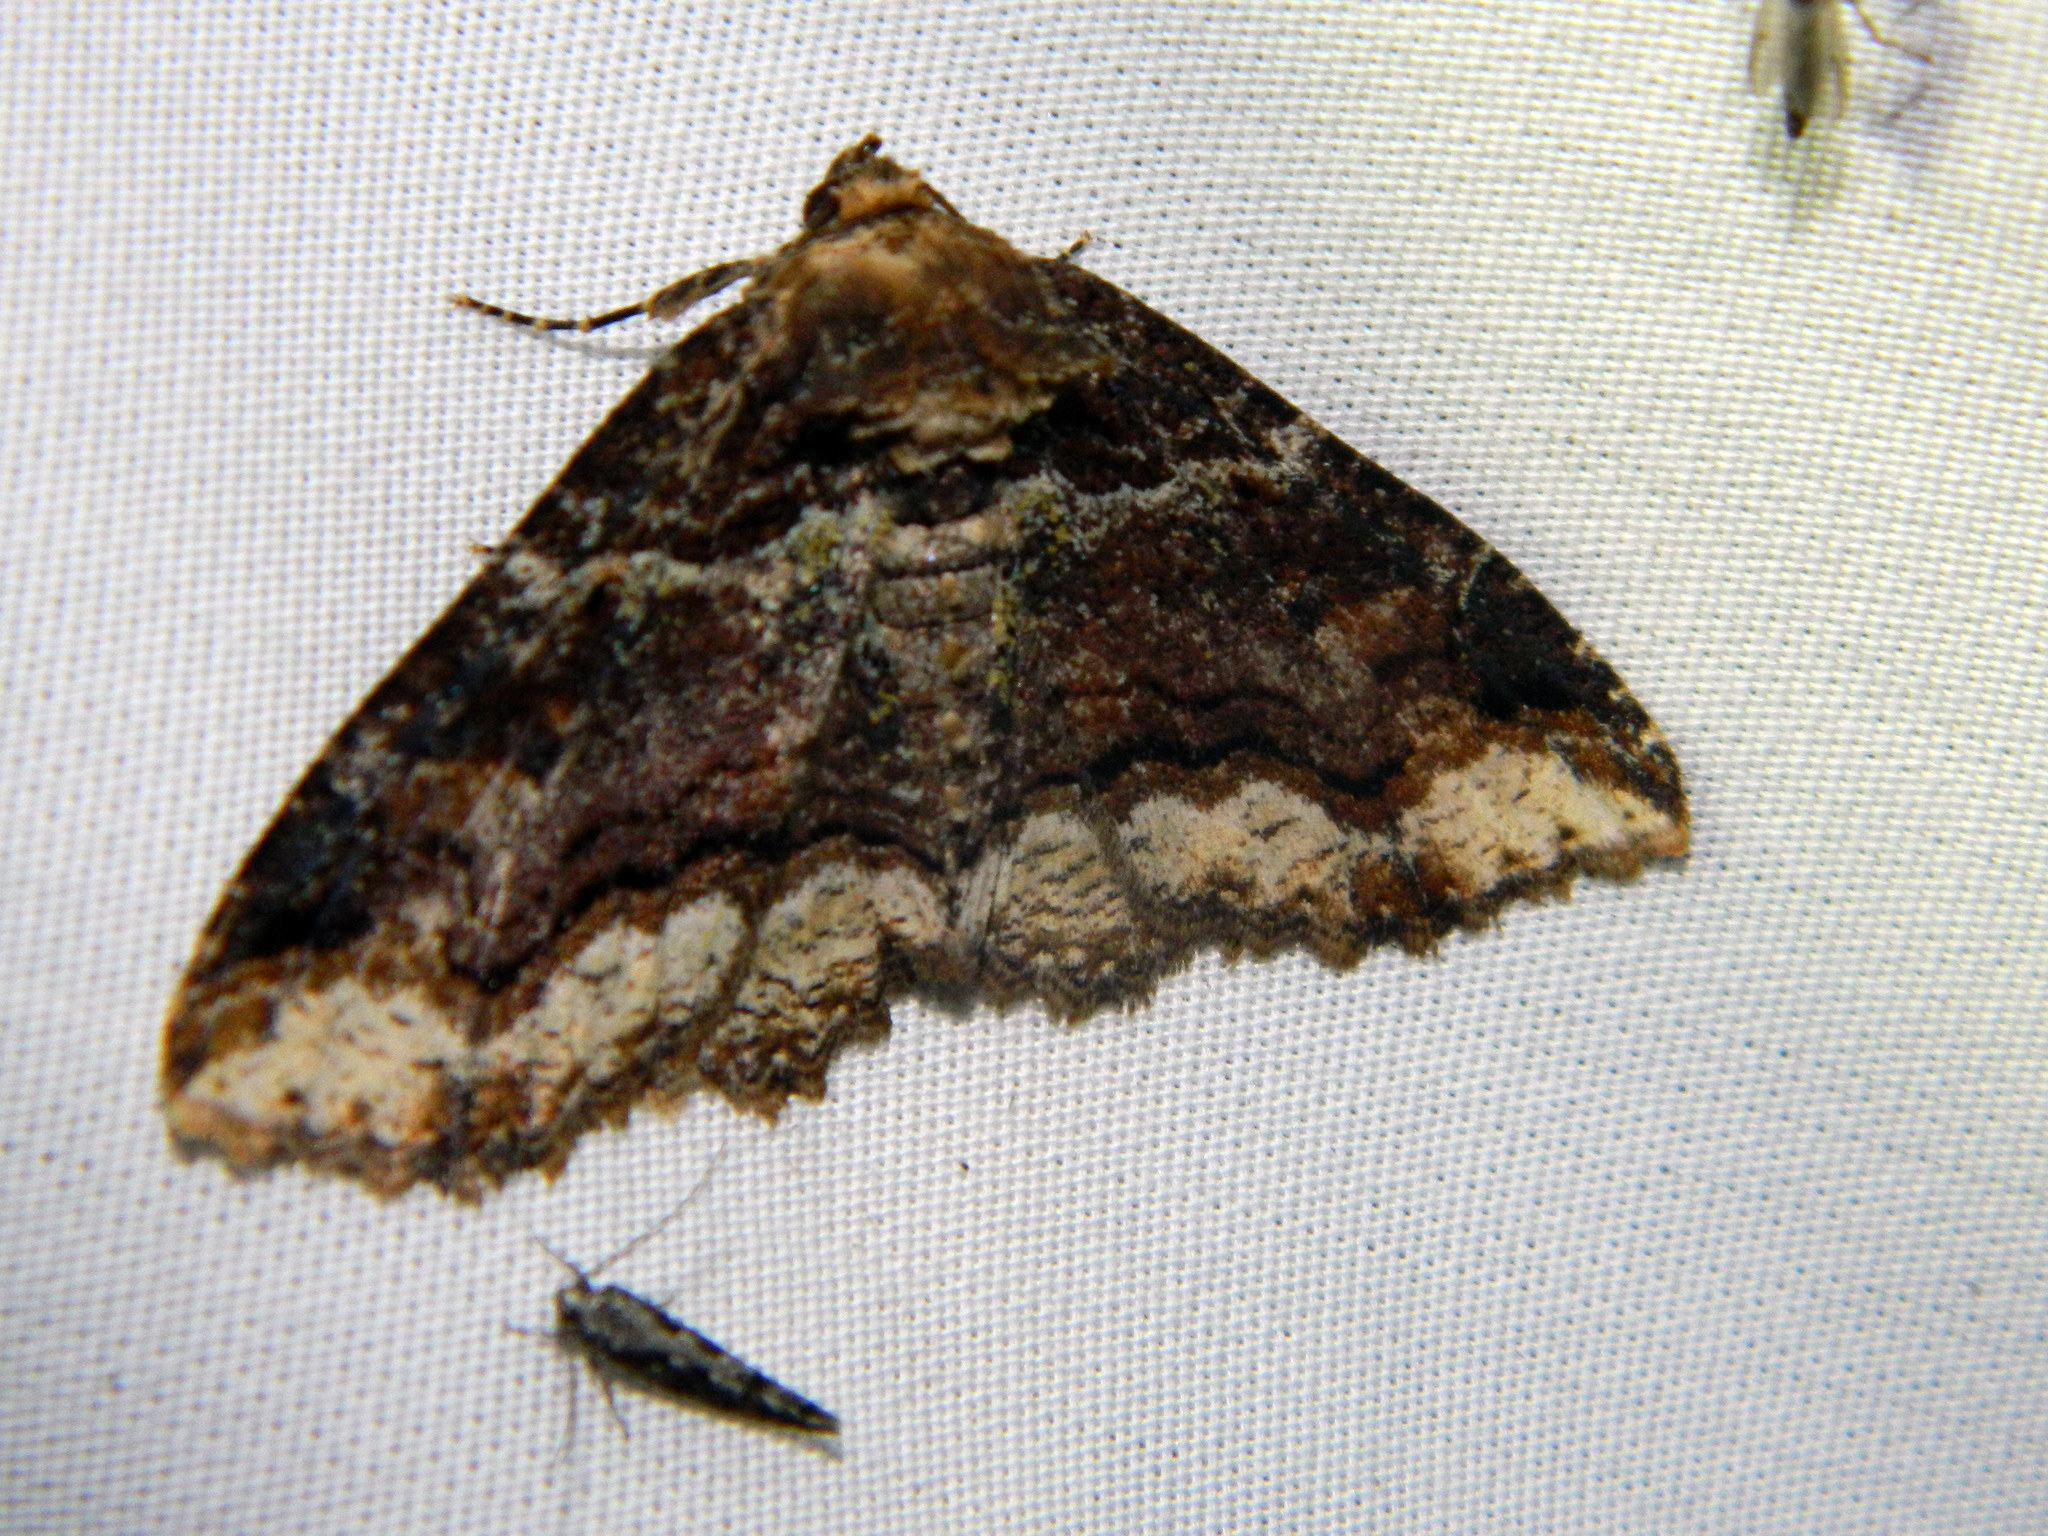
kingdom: Animalia
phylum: Arthropoda
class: Insecta
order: Lepidoptera
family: Erebidae
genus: Zale
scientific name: Zale minerea
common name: Colorful zale moth
